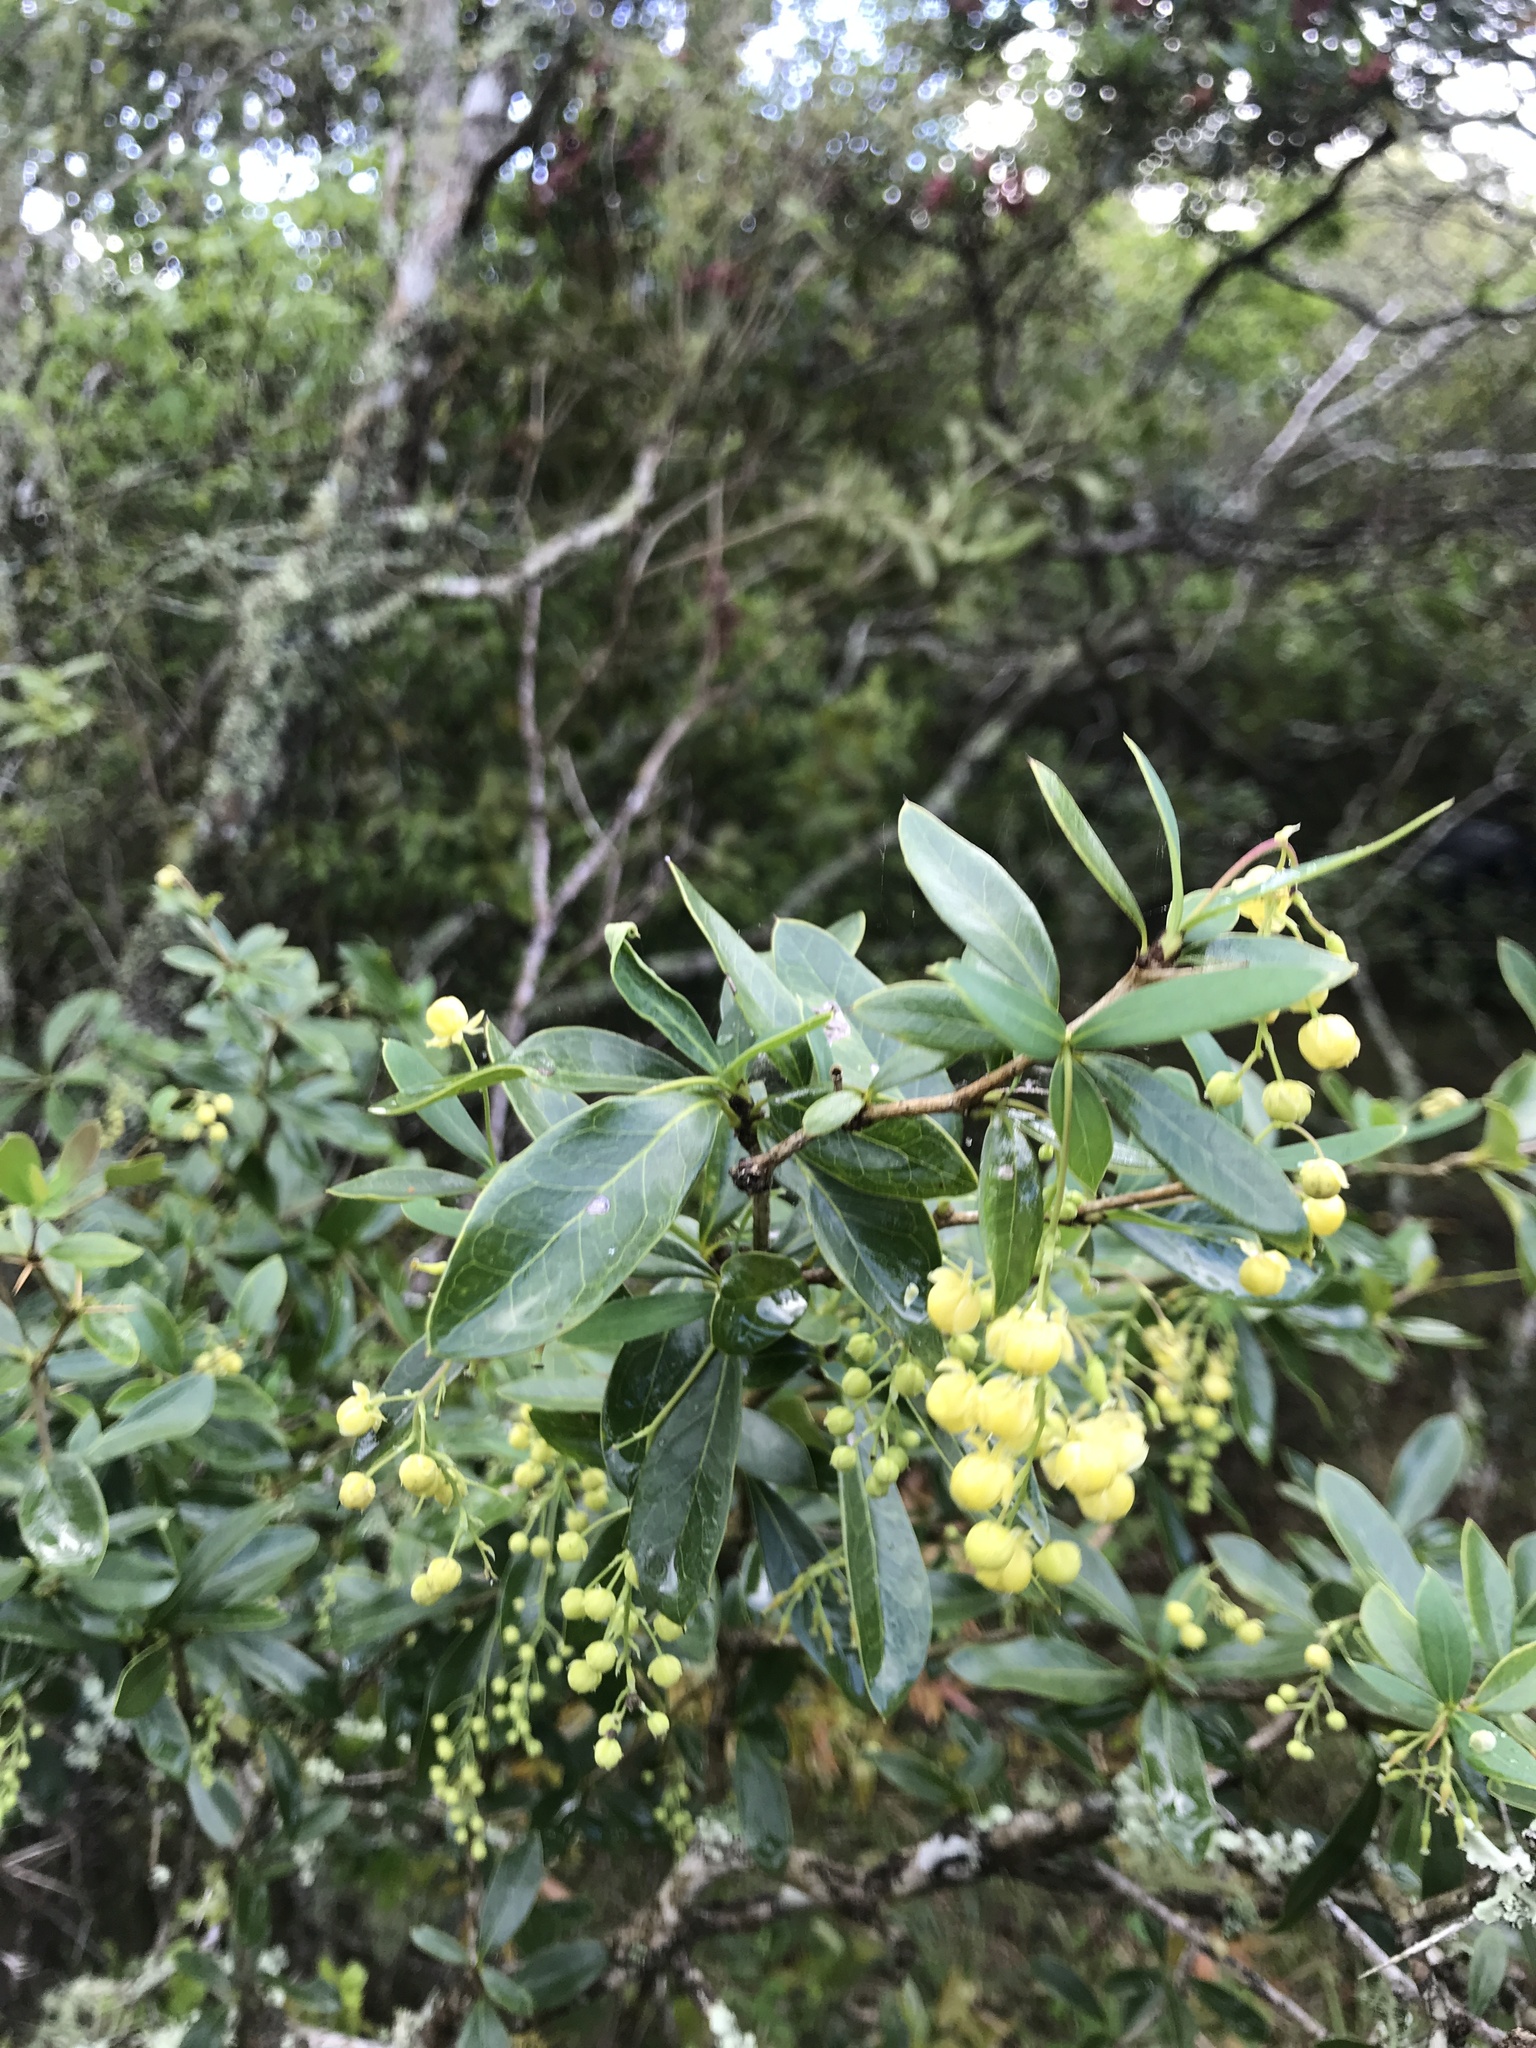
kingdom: Plantae
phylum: Tracheophyta
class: Magnoliopsida
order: Ranunculales
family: Berberidaceae
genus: Berberis
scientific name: Berberis laurina
